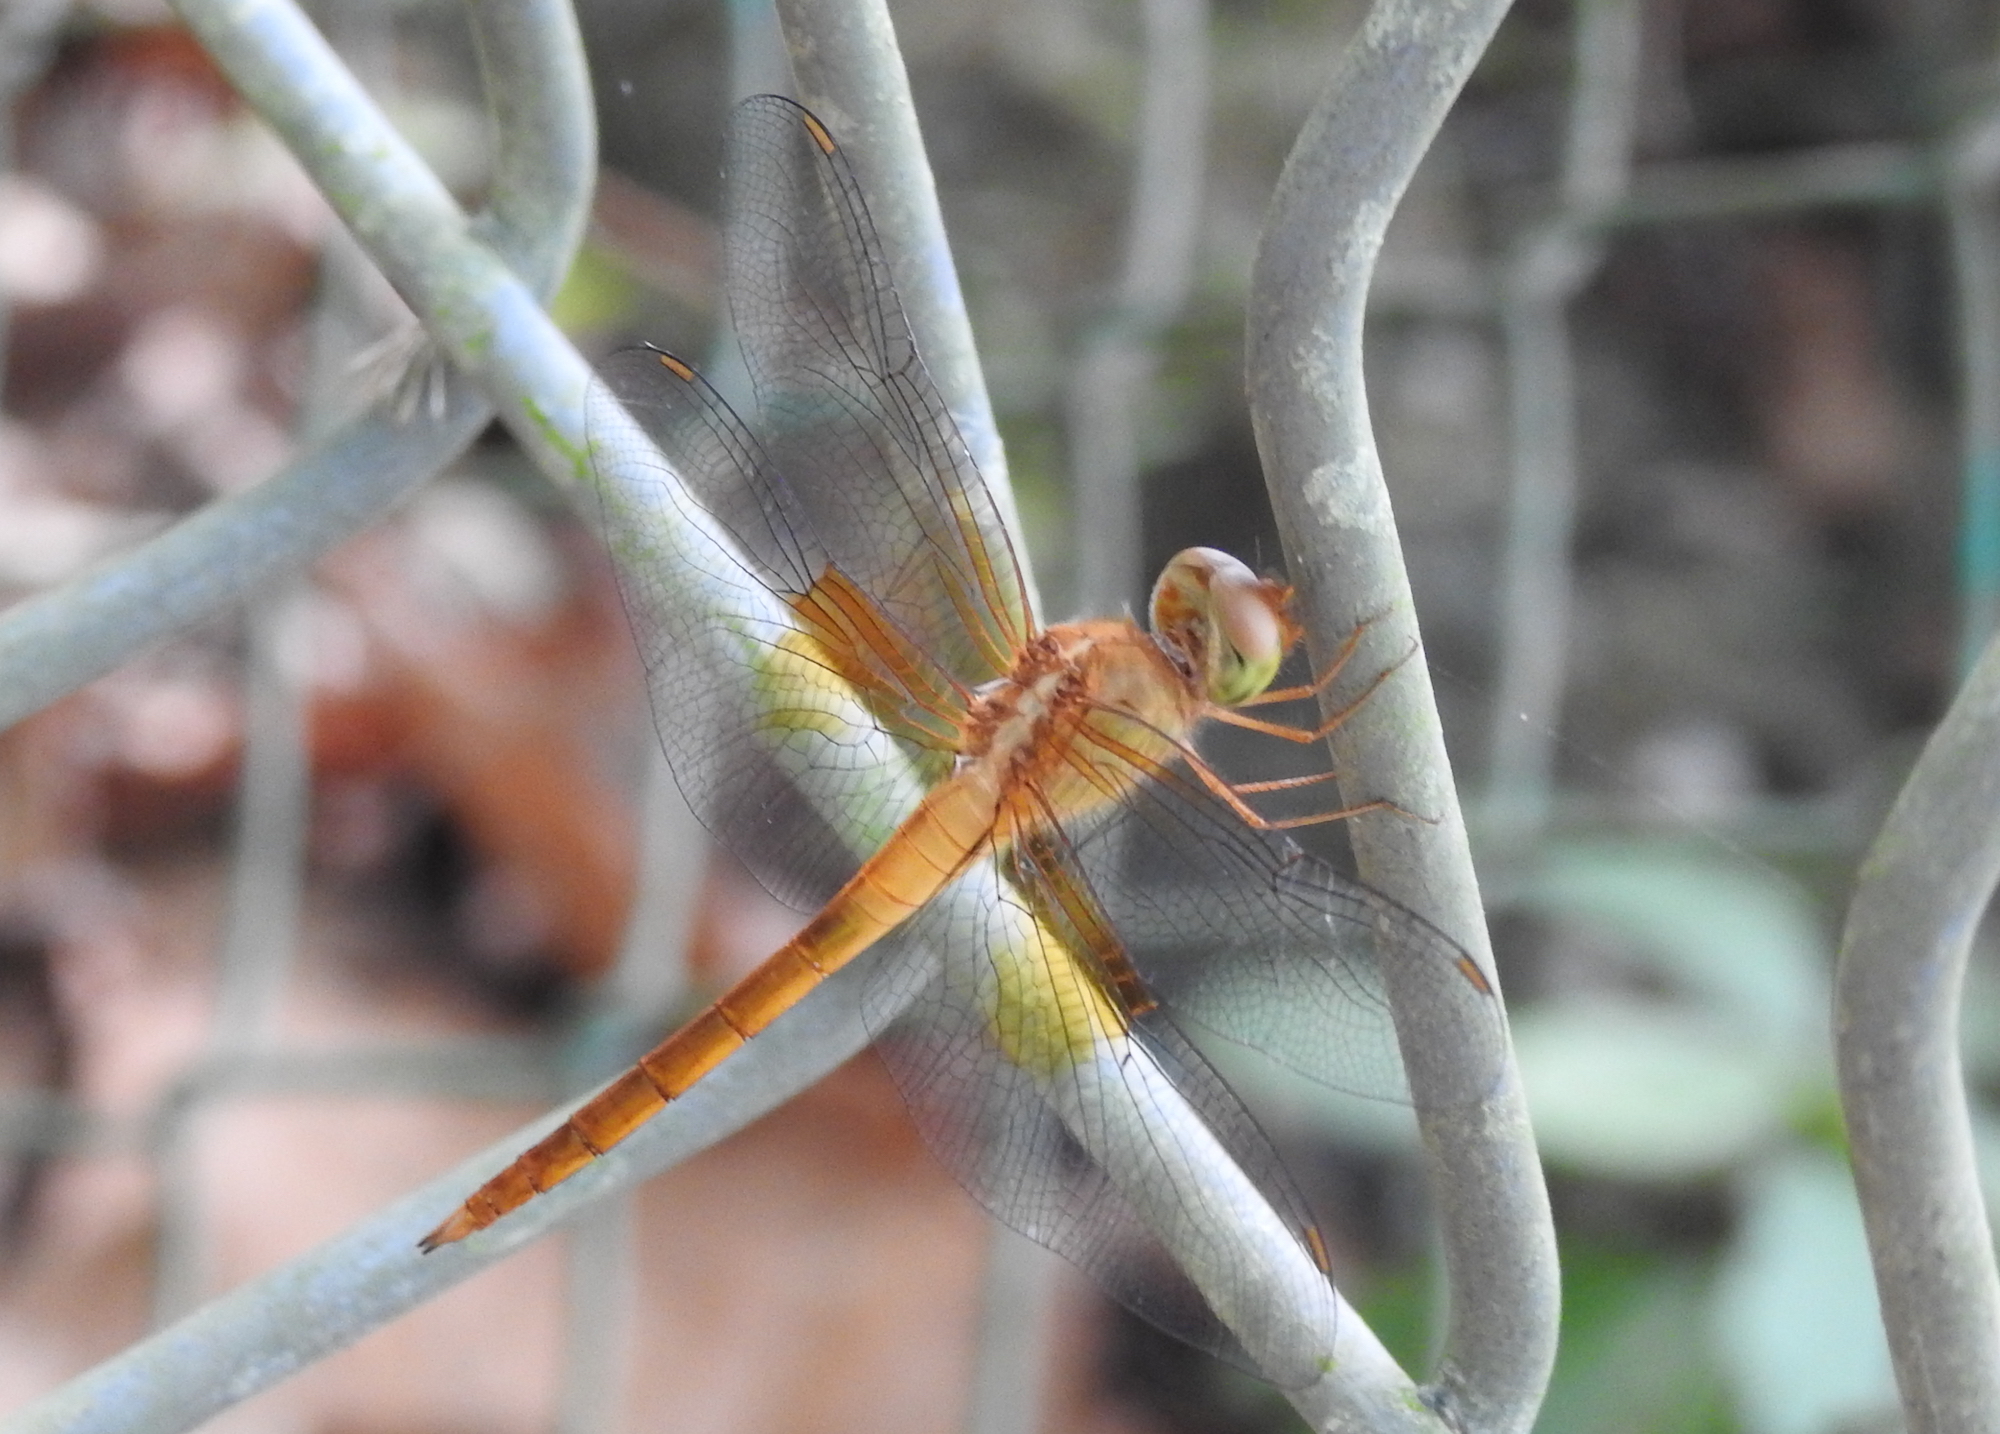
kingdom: Animalia
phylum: Arthropoda
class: Insecta
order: Odonata
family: Libellulidae
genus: Tholymis
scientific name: Tholymis tillarga
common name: Coral-tailed cloud wing
